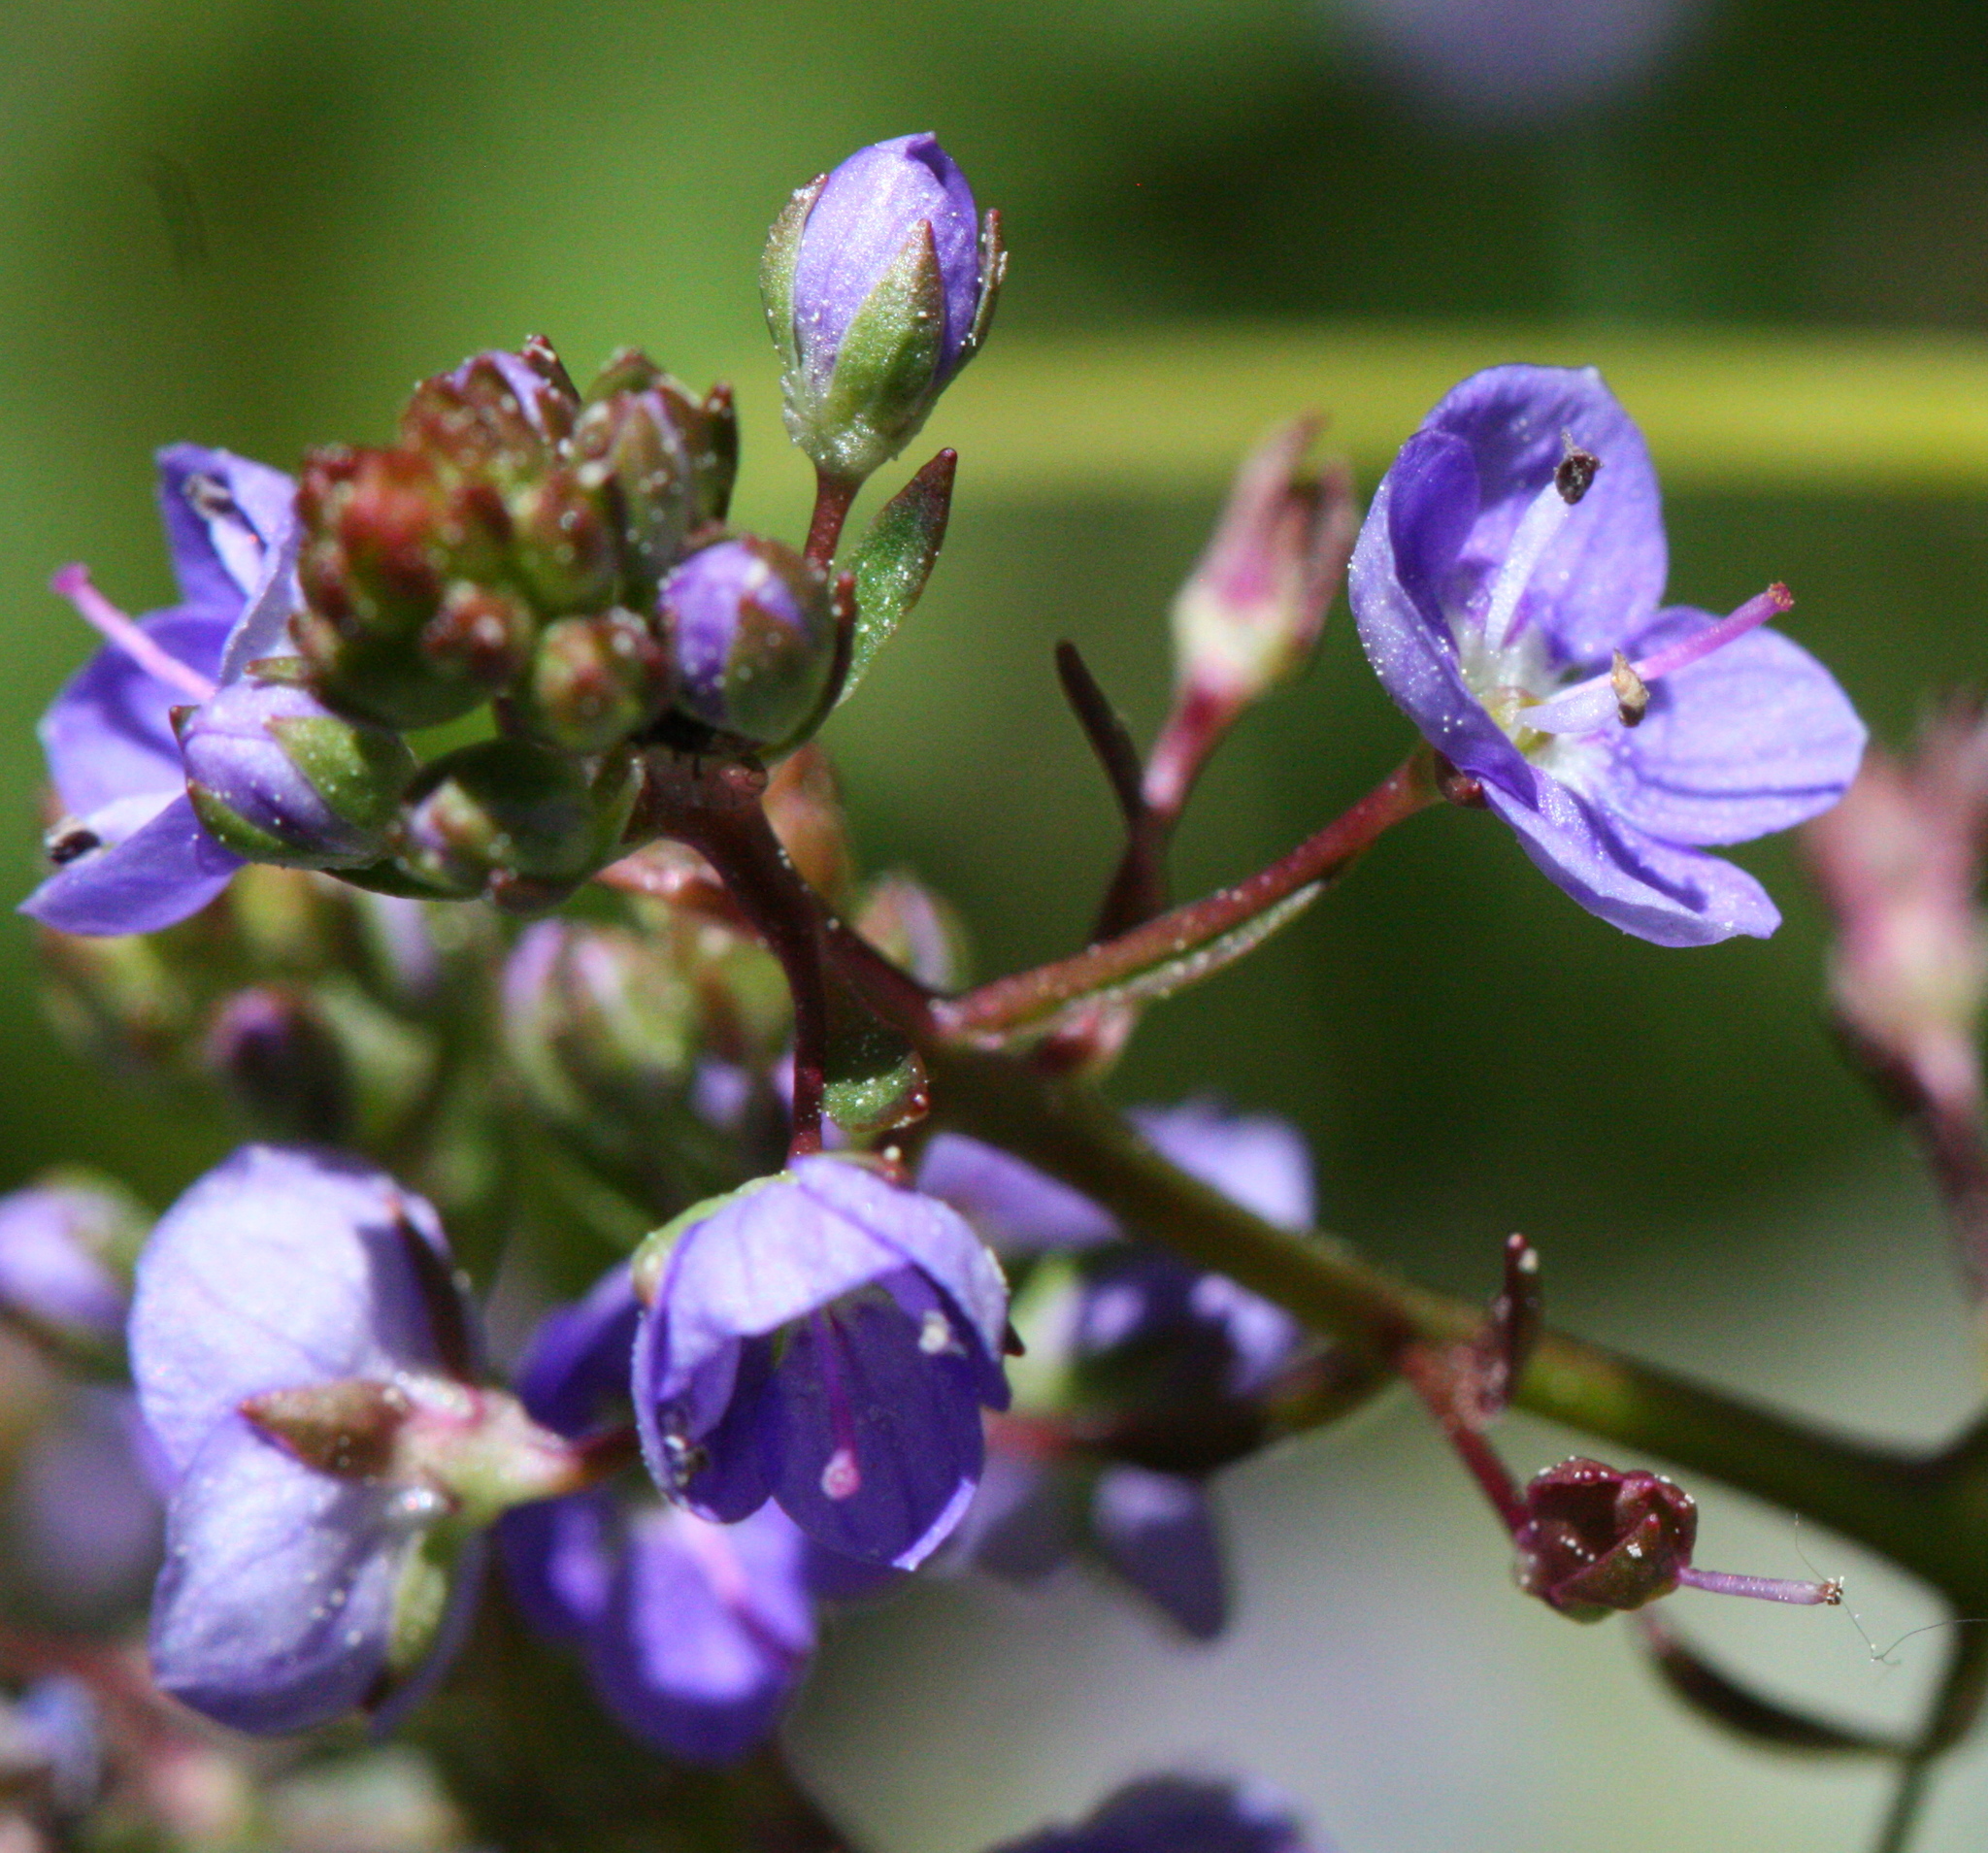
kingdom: Plantae
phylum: Tracheophyta
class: Magnoliopsida
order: Lamiales
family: Plantaginaceae
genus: Veronica
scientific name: Veronica americana
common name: American brooklime
